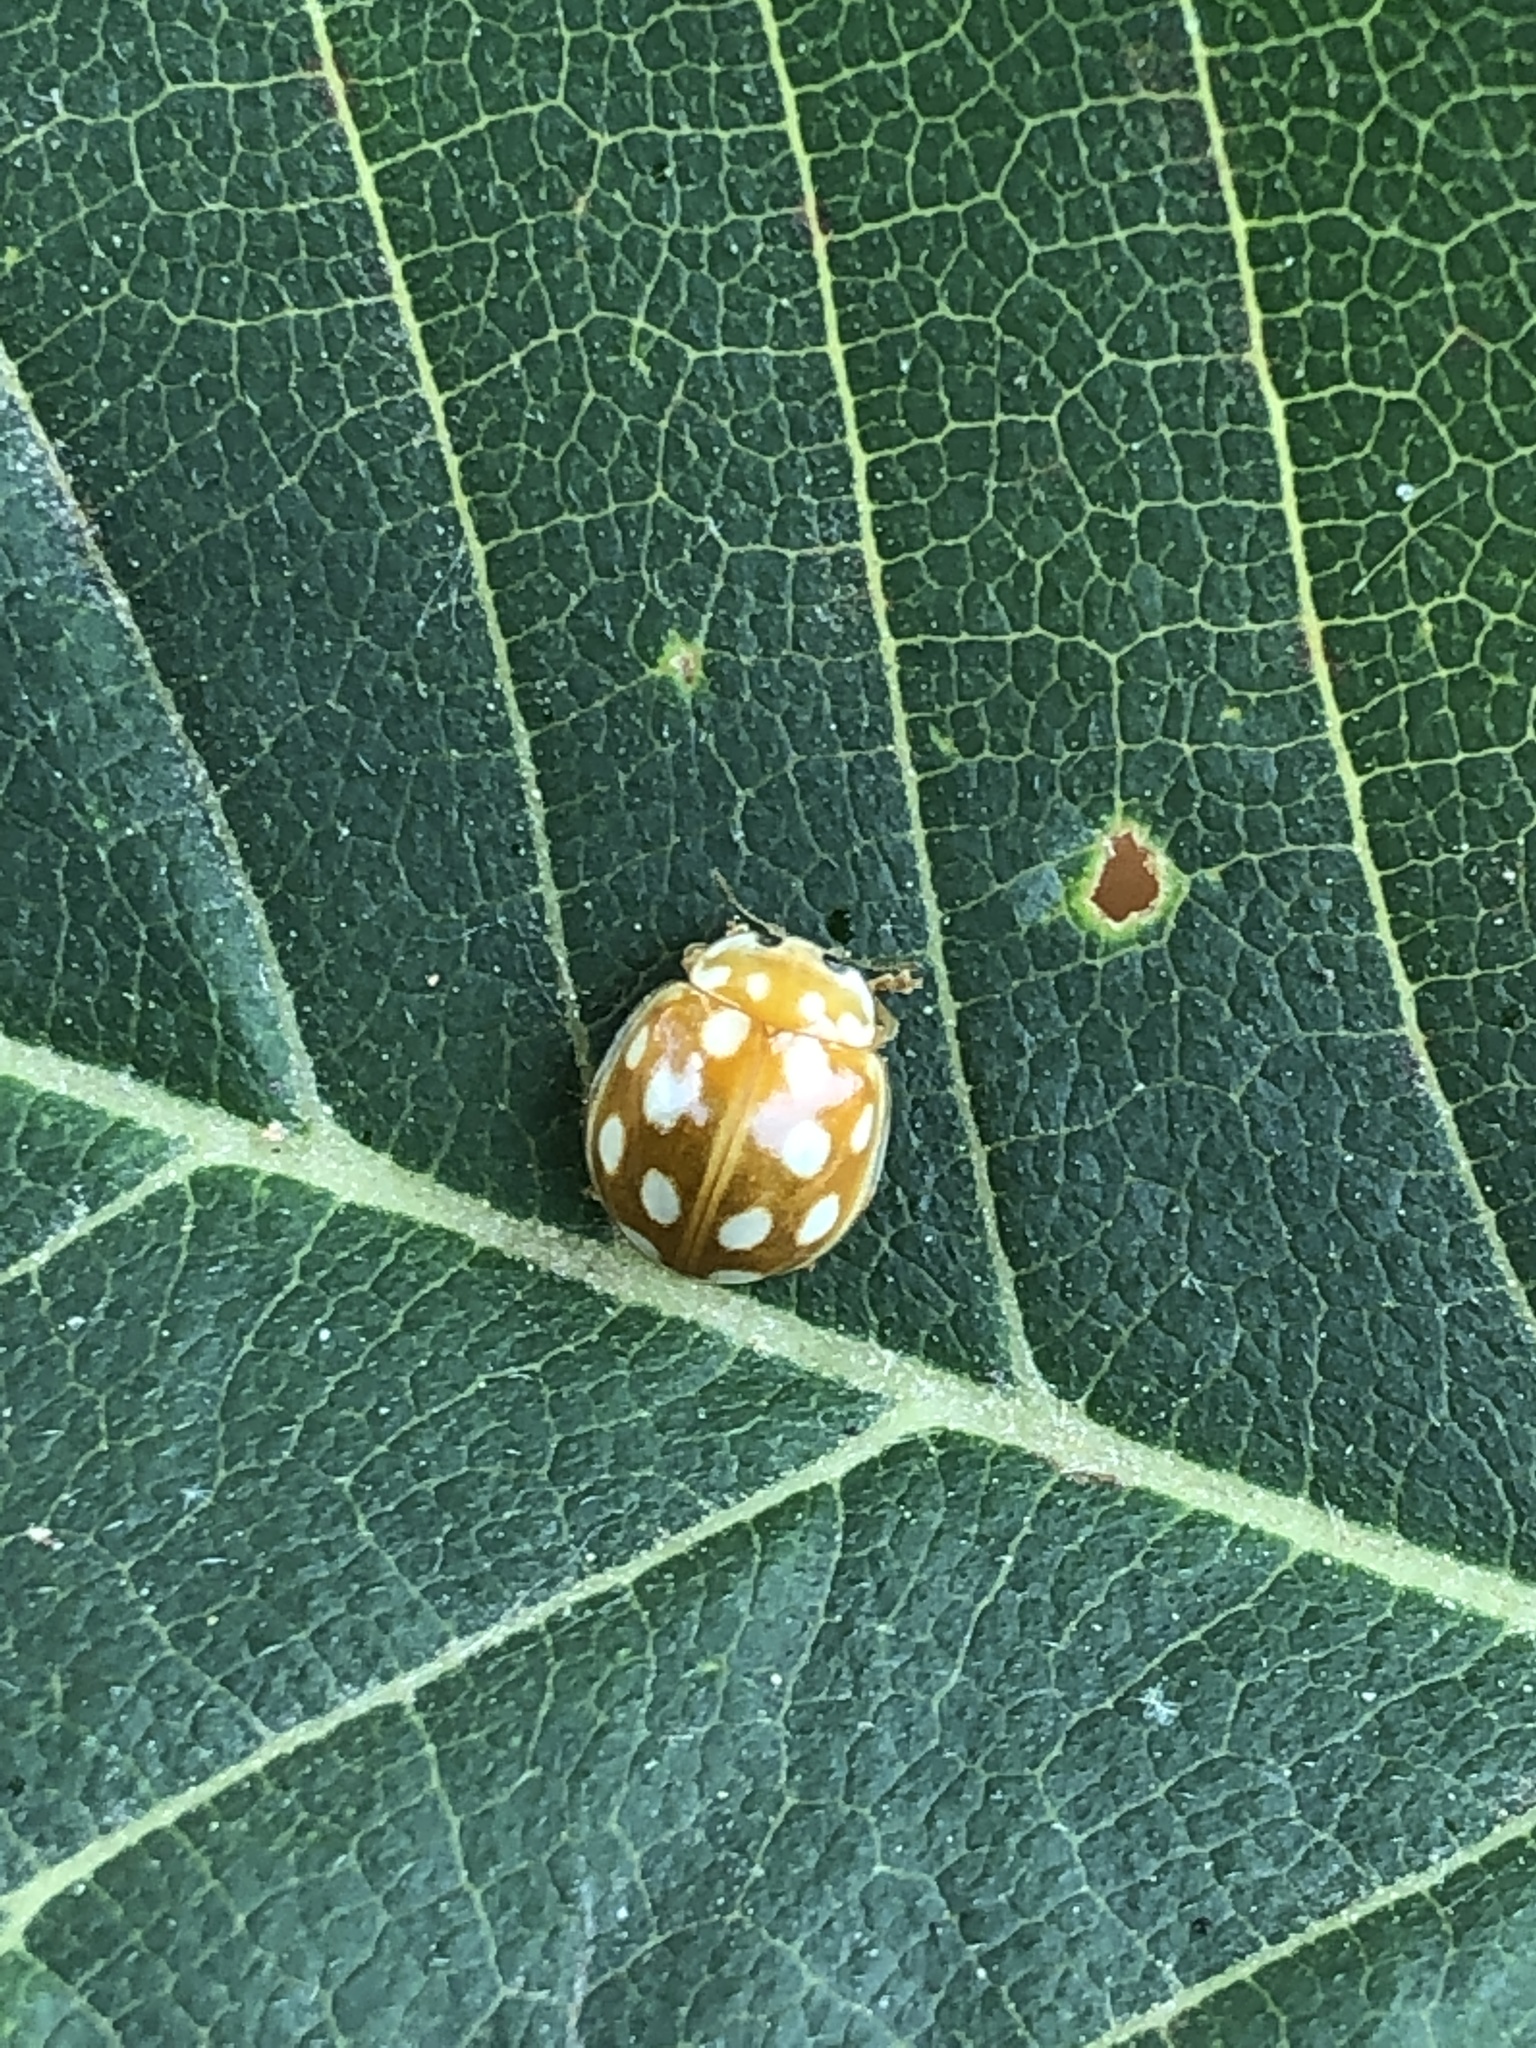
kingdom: Animalia
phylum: Arthropoda
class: Insecta
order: Coleoptera
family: Coccinellidae
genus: Calvia
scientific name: Calvia muiri
